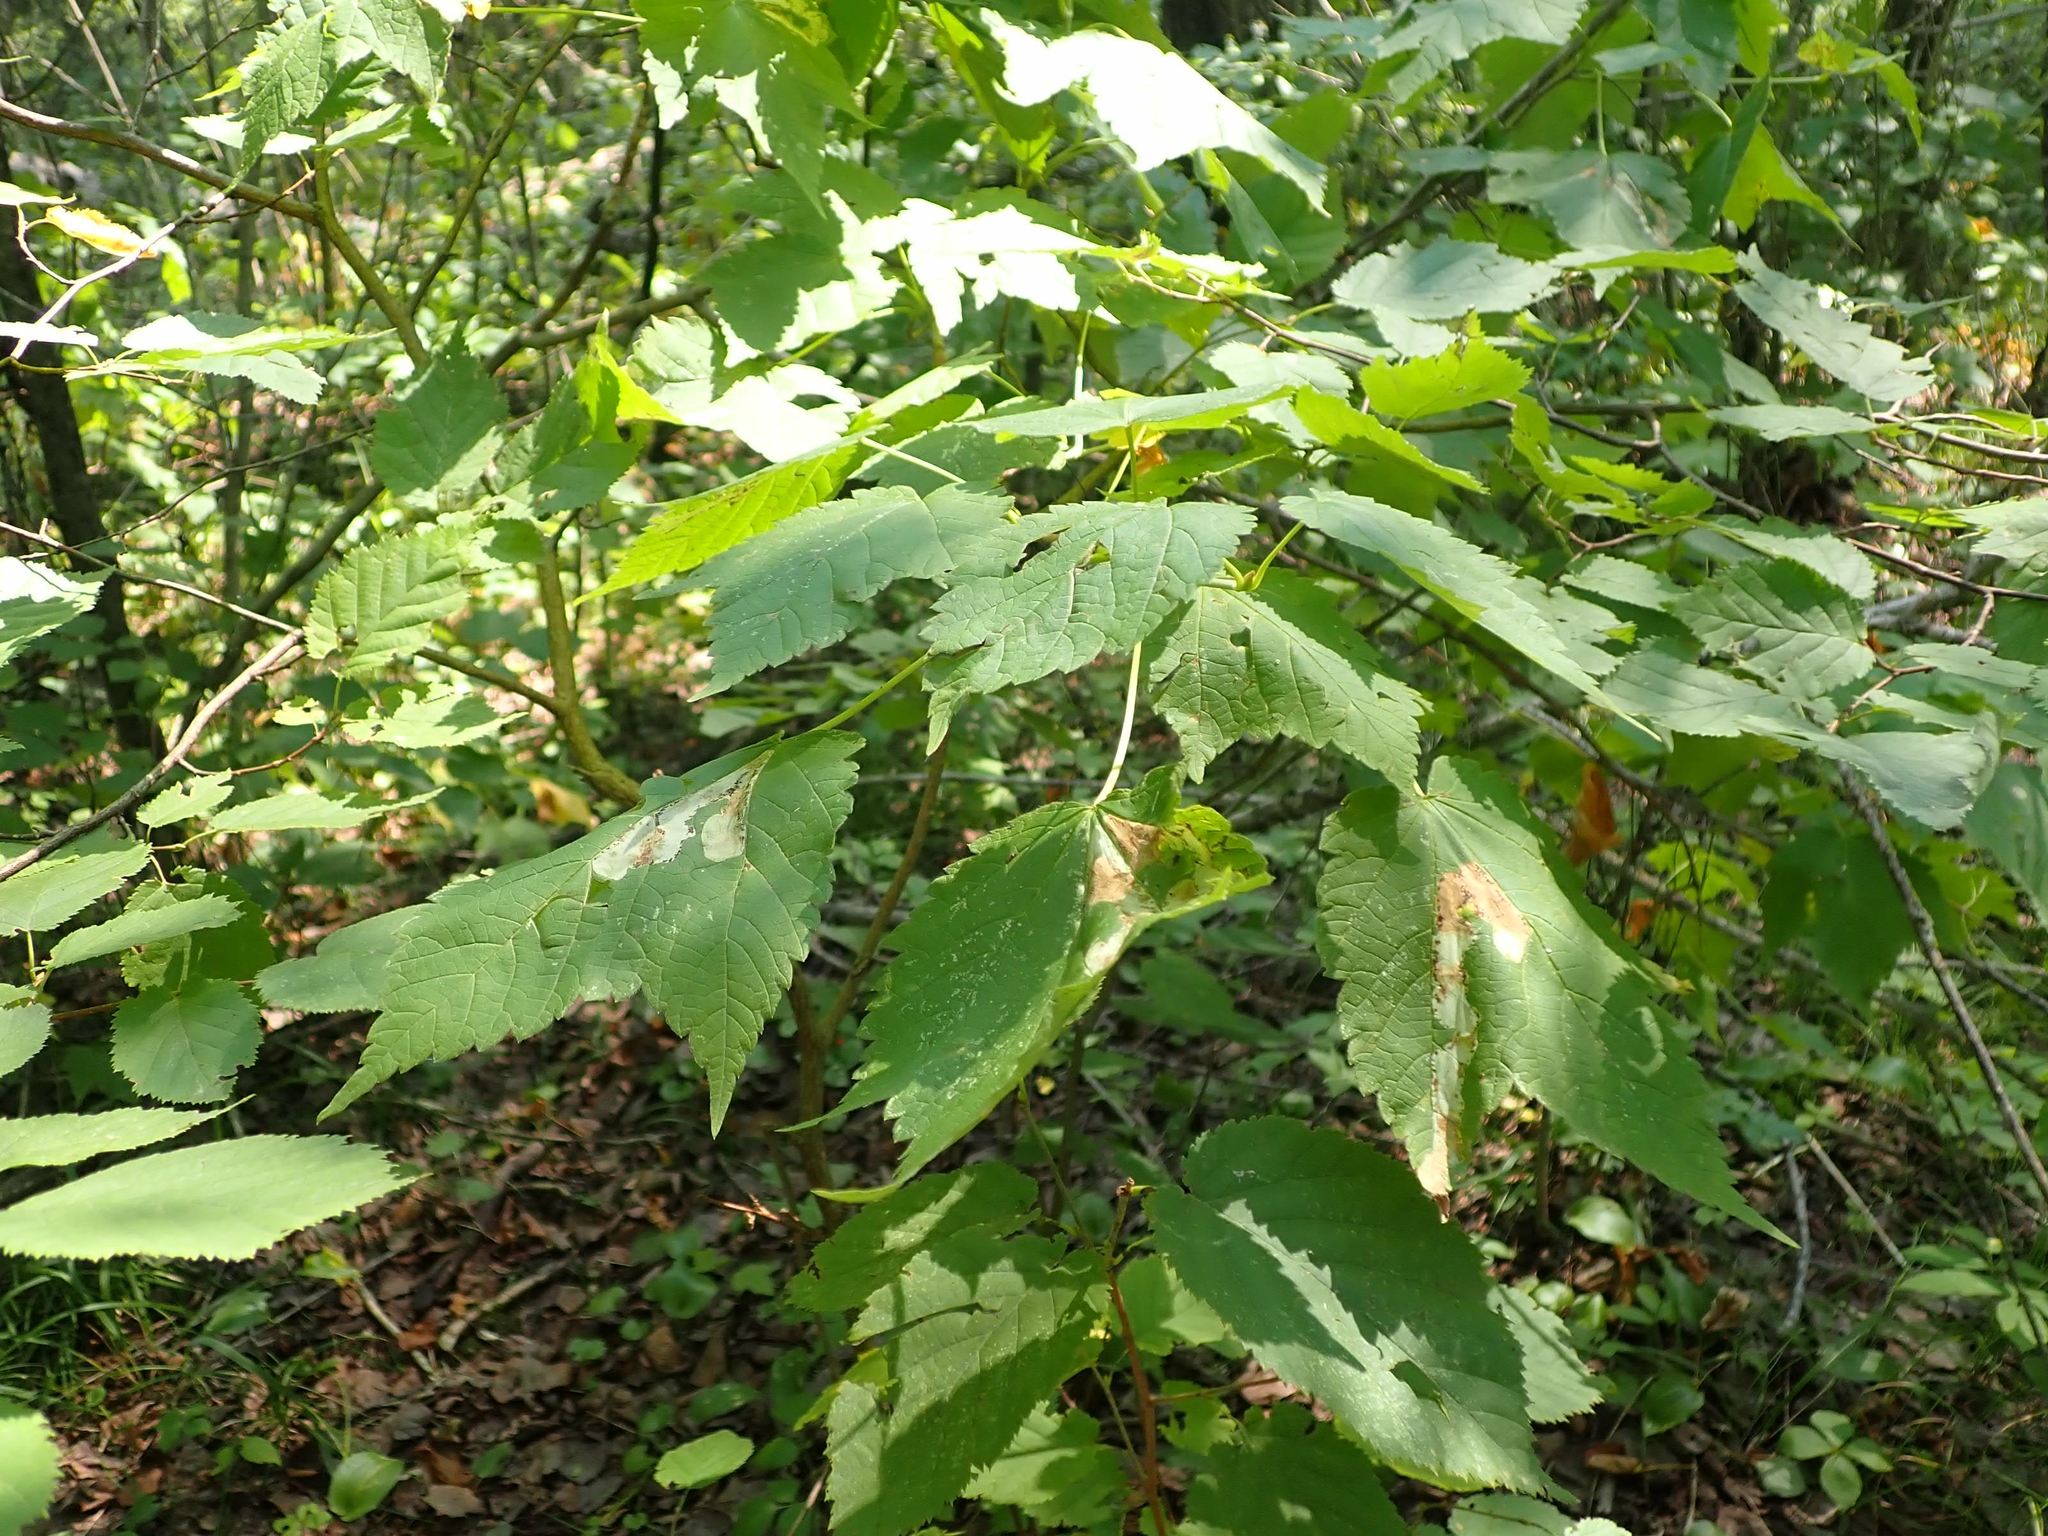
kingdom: Plantae
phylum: Tracheophyta
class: Magnoliopsida
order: Sapindales
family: Sapindaceae
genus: Acer
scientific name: Acer spicatum
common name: Mountain maple
